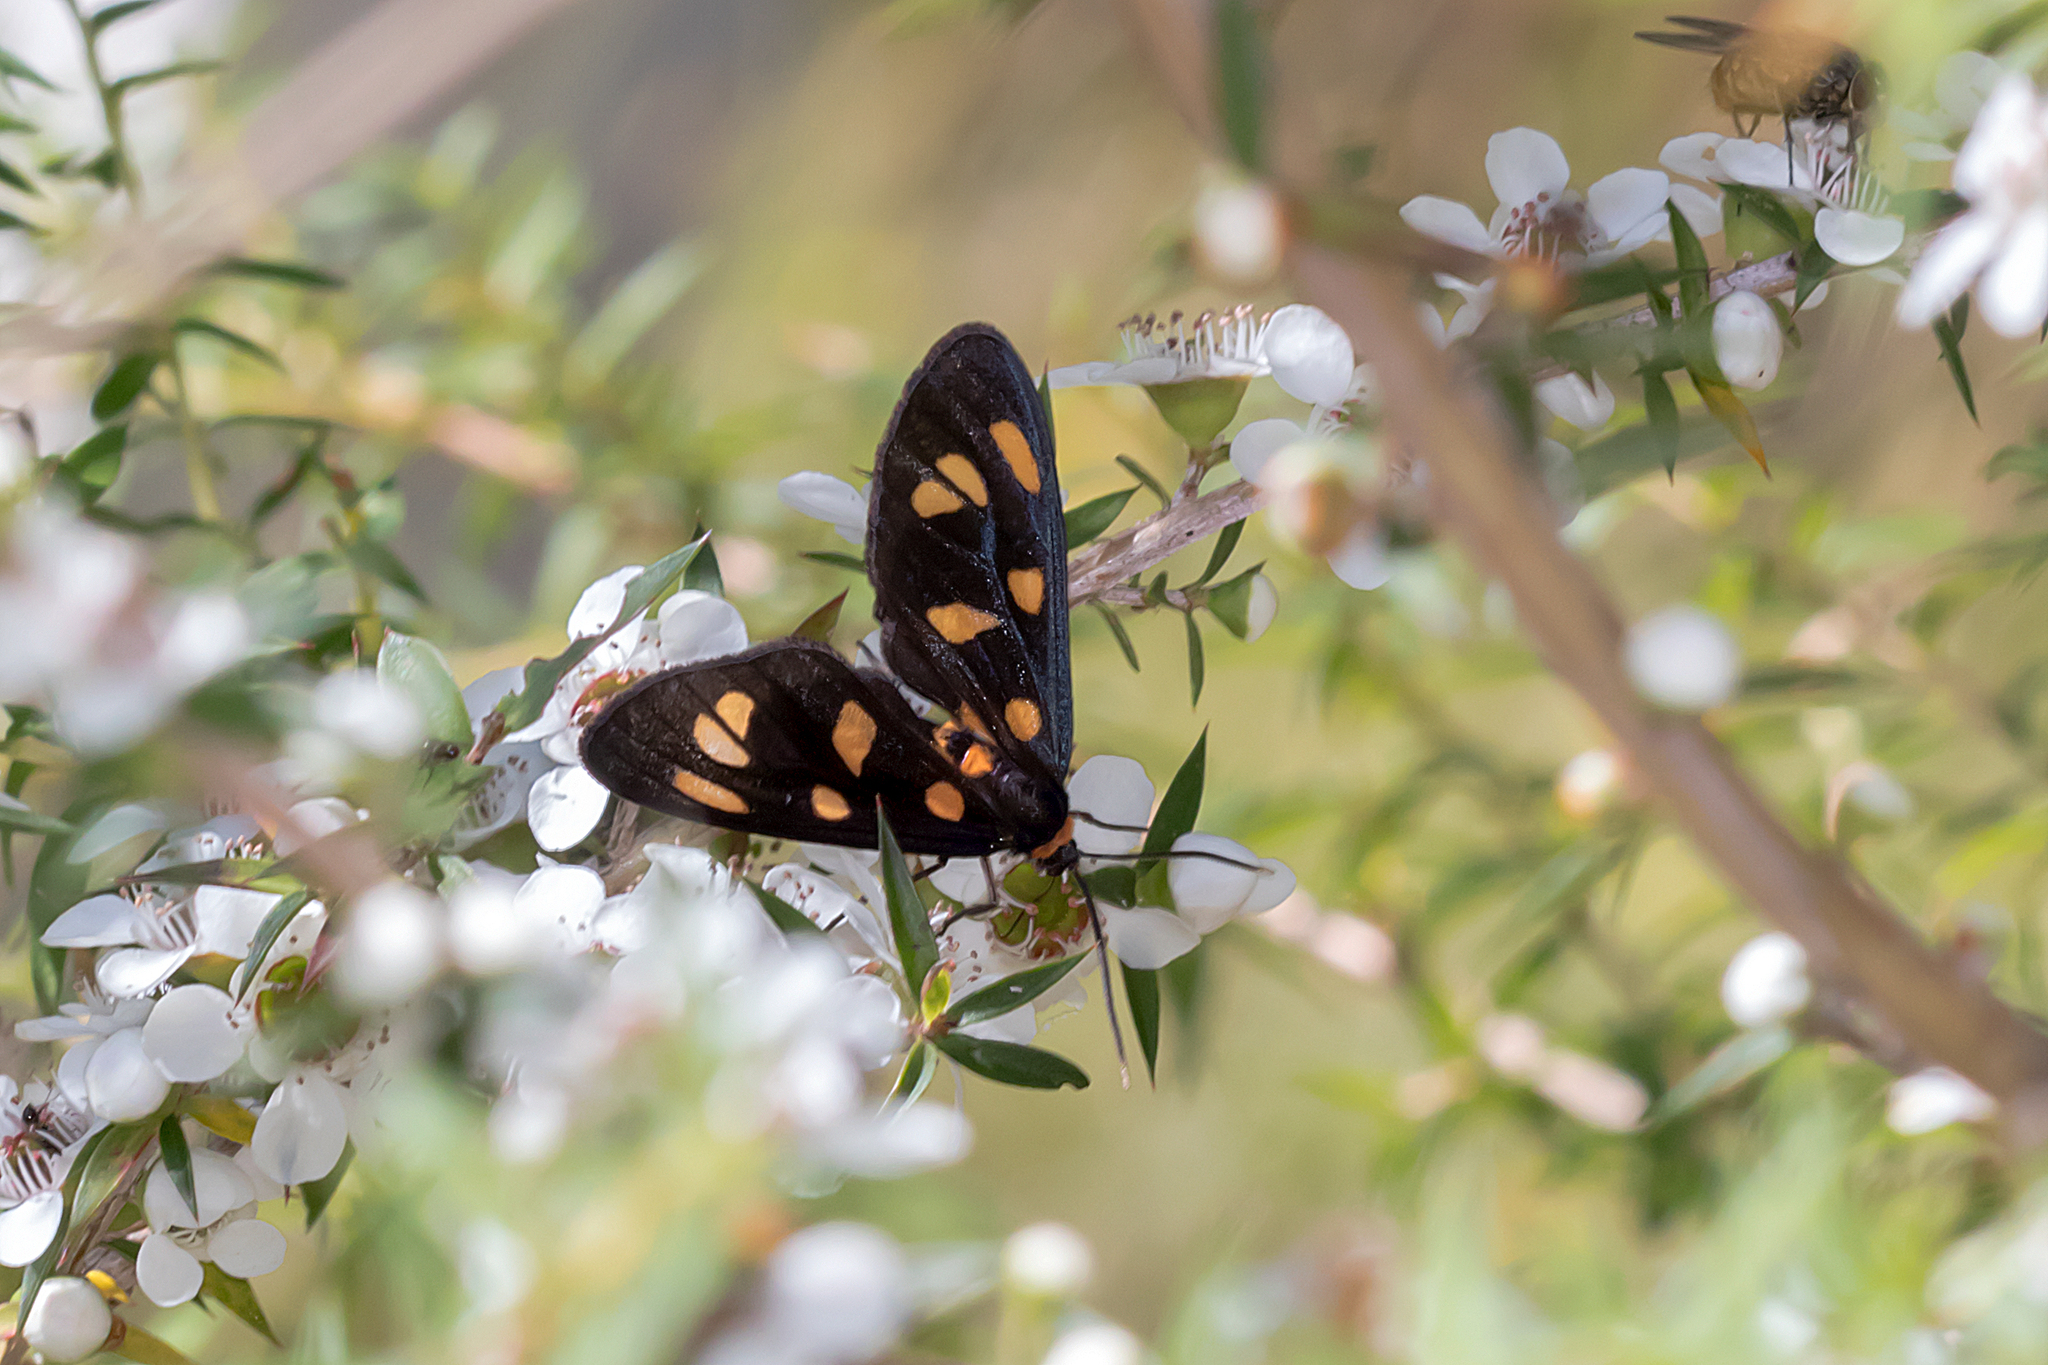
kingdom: Animalia
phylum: Arthropoda
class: Insecta
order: Lepidoptera
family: Erebidae
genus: Amata
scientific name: Amata nigriceps
